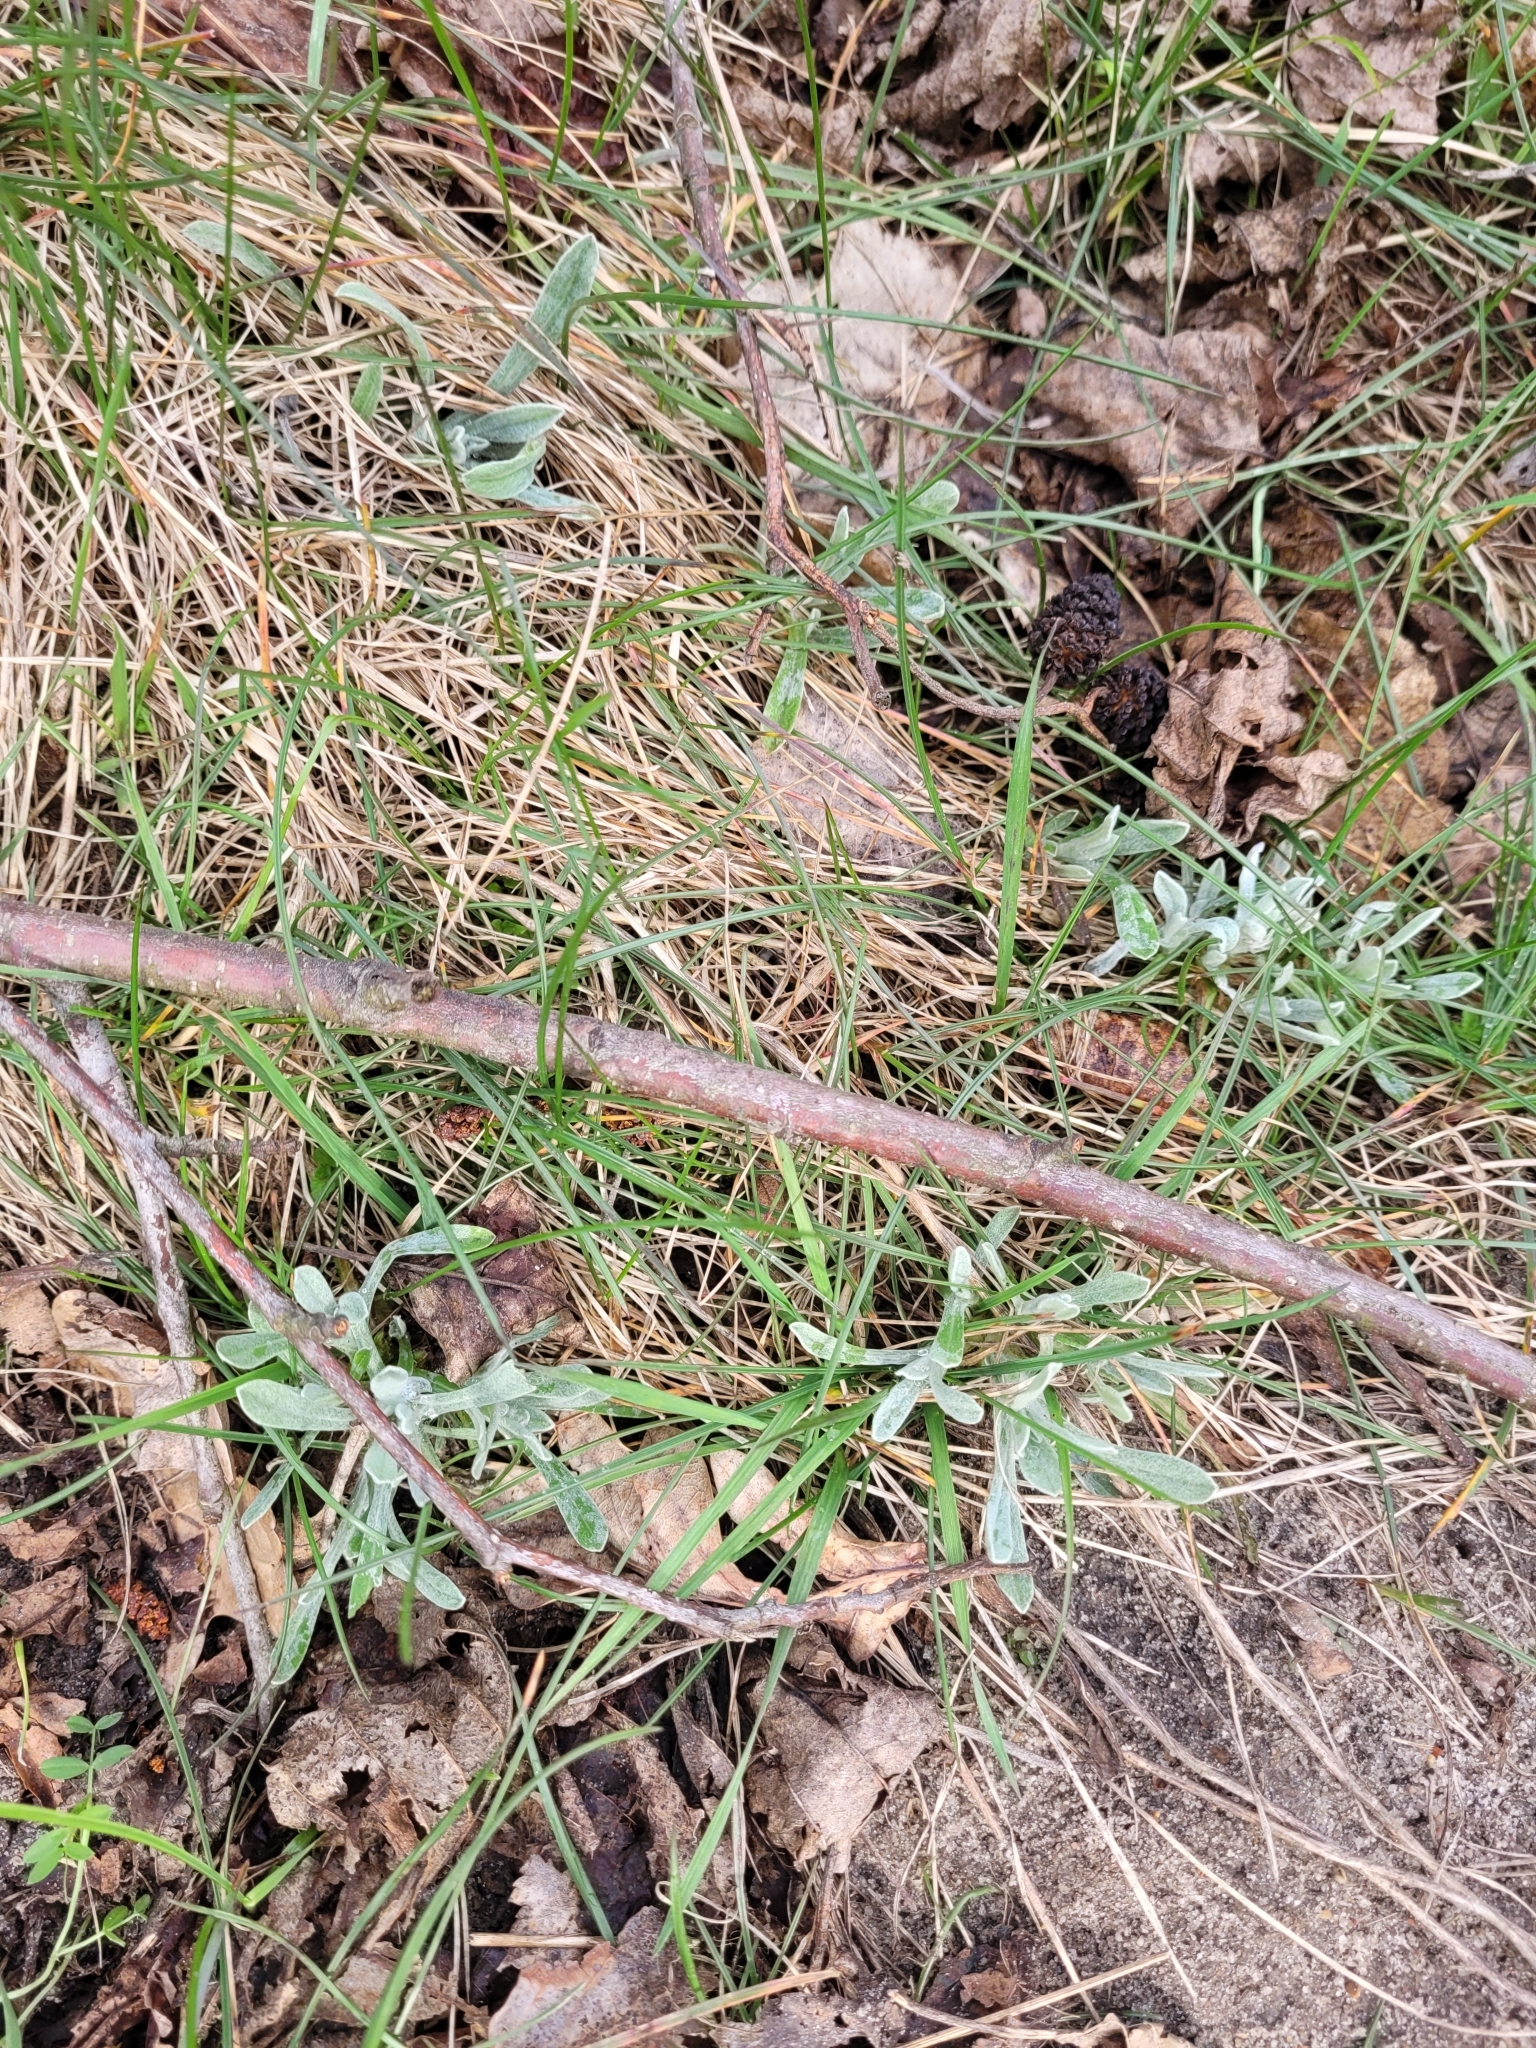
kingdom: Plantae
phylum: Tracheophyta
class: Magnoliopsida
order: Asterales
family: Asteraceae
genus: Helichrysum
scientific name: Helichrysum arenarium
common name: Strawflower
